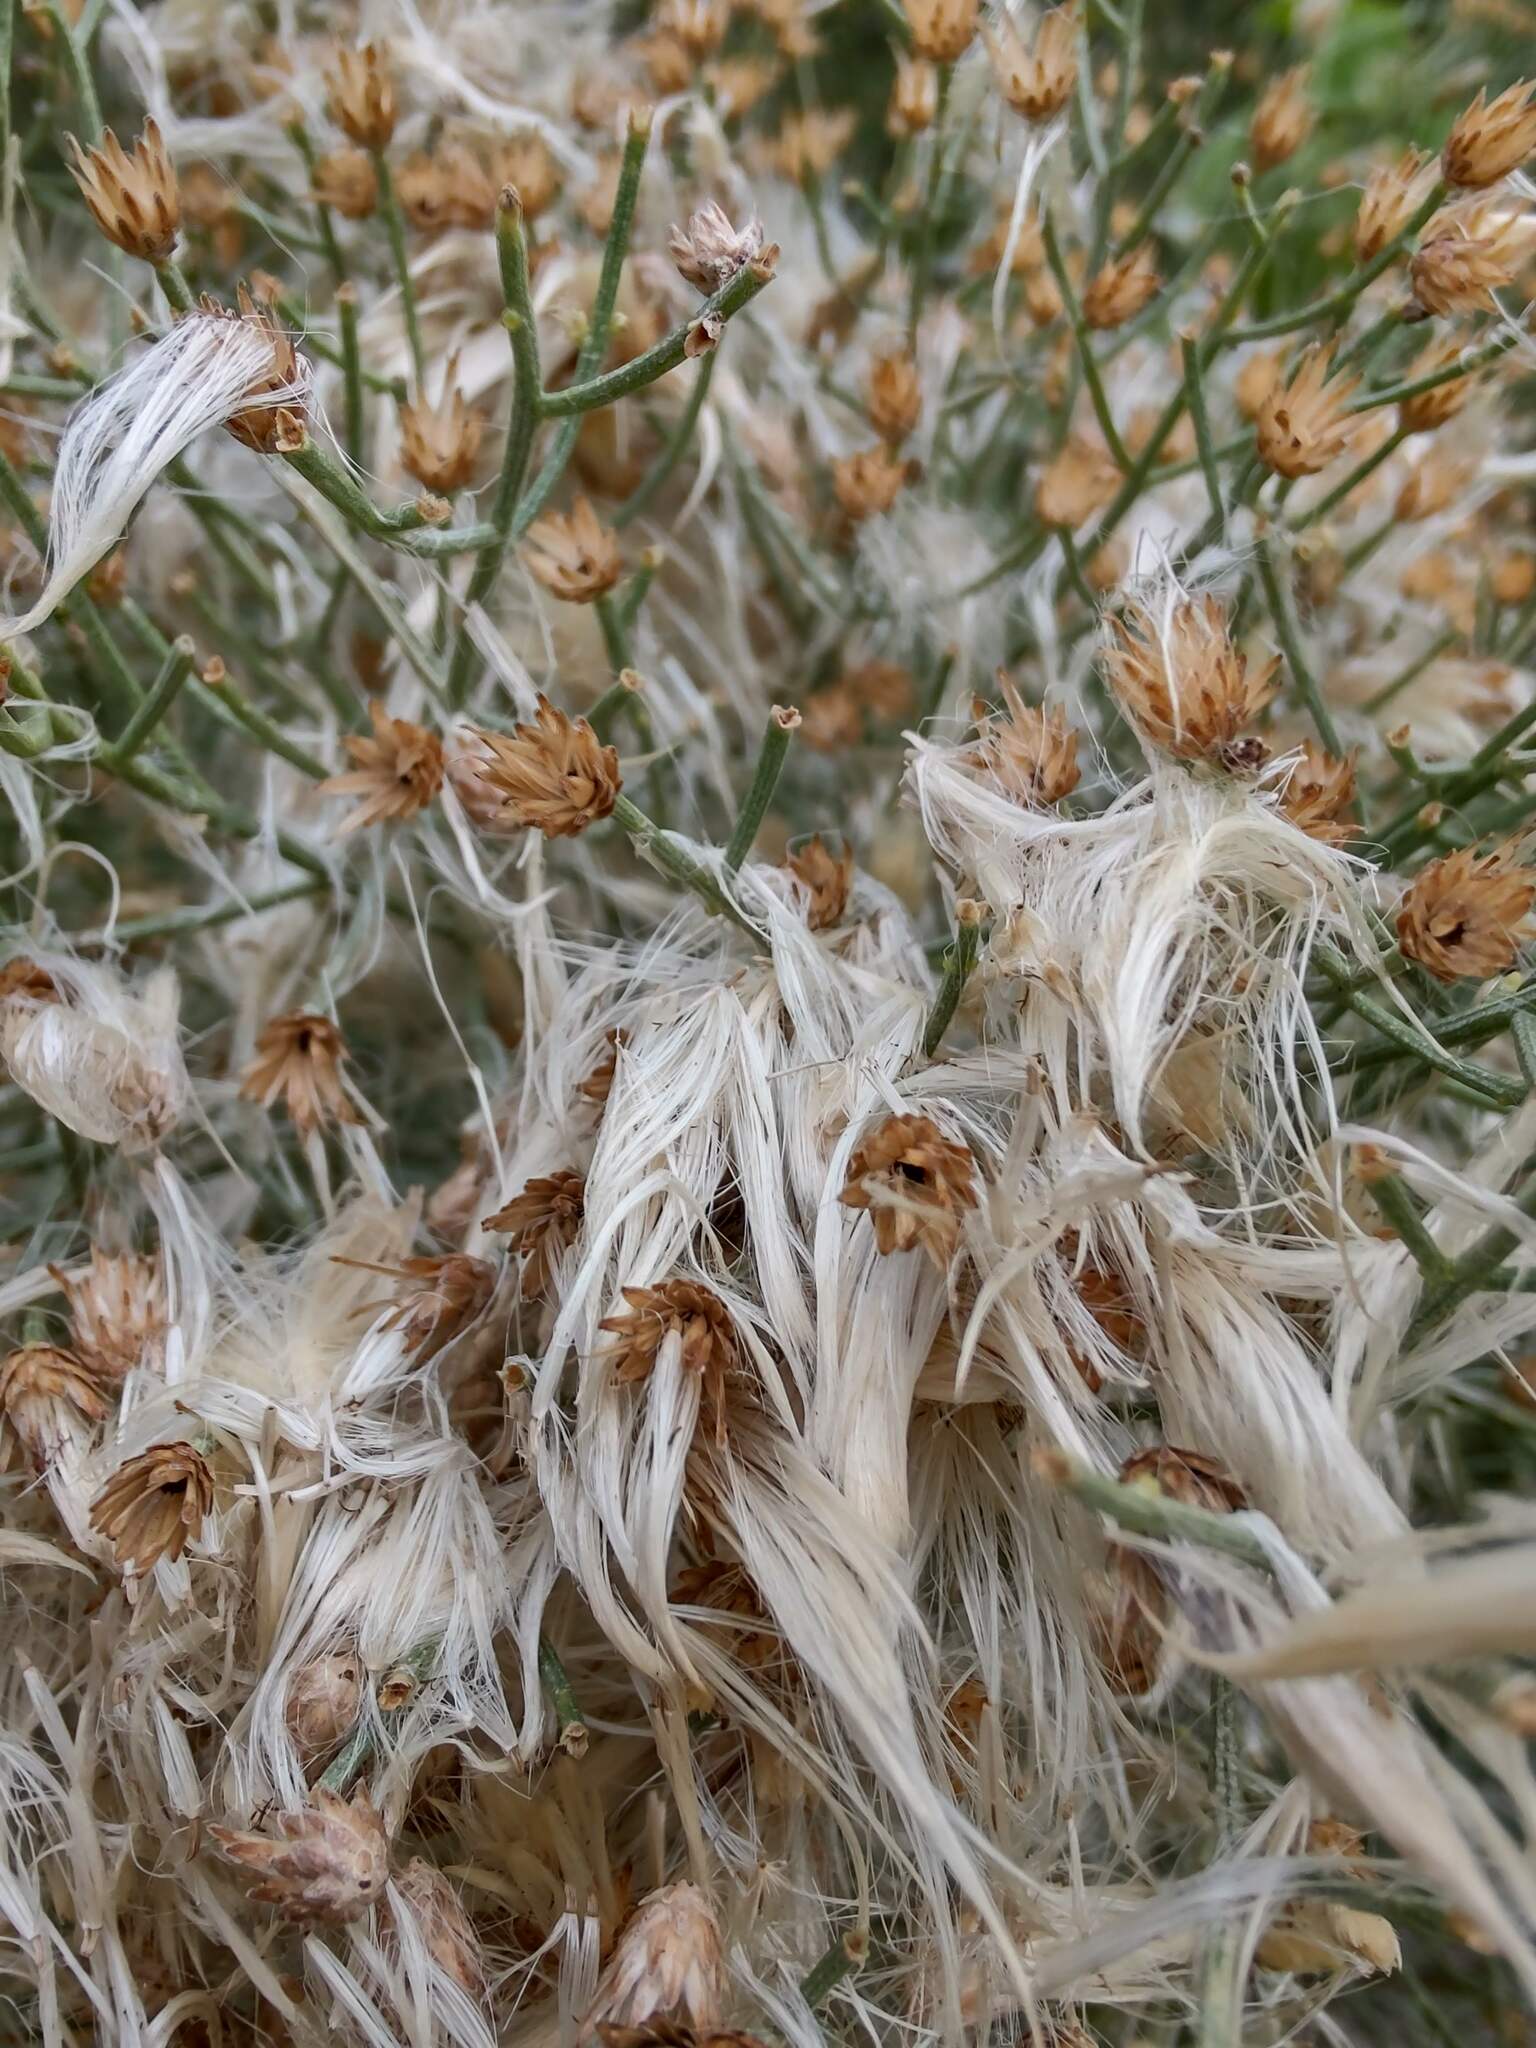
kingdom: Plantae
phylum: Tracheophyta
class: Magnoliopsida
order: Asterales
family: Asteraceae
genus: Baccharis
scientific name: Baccharis notosergila
